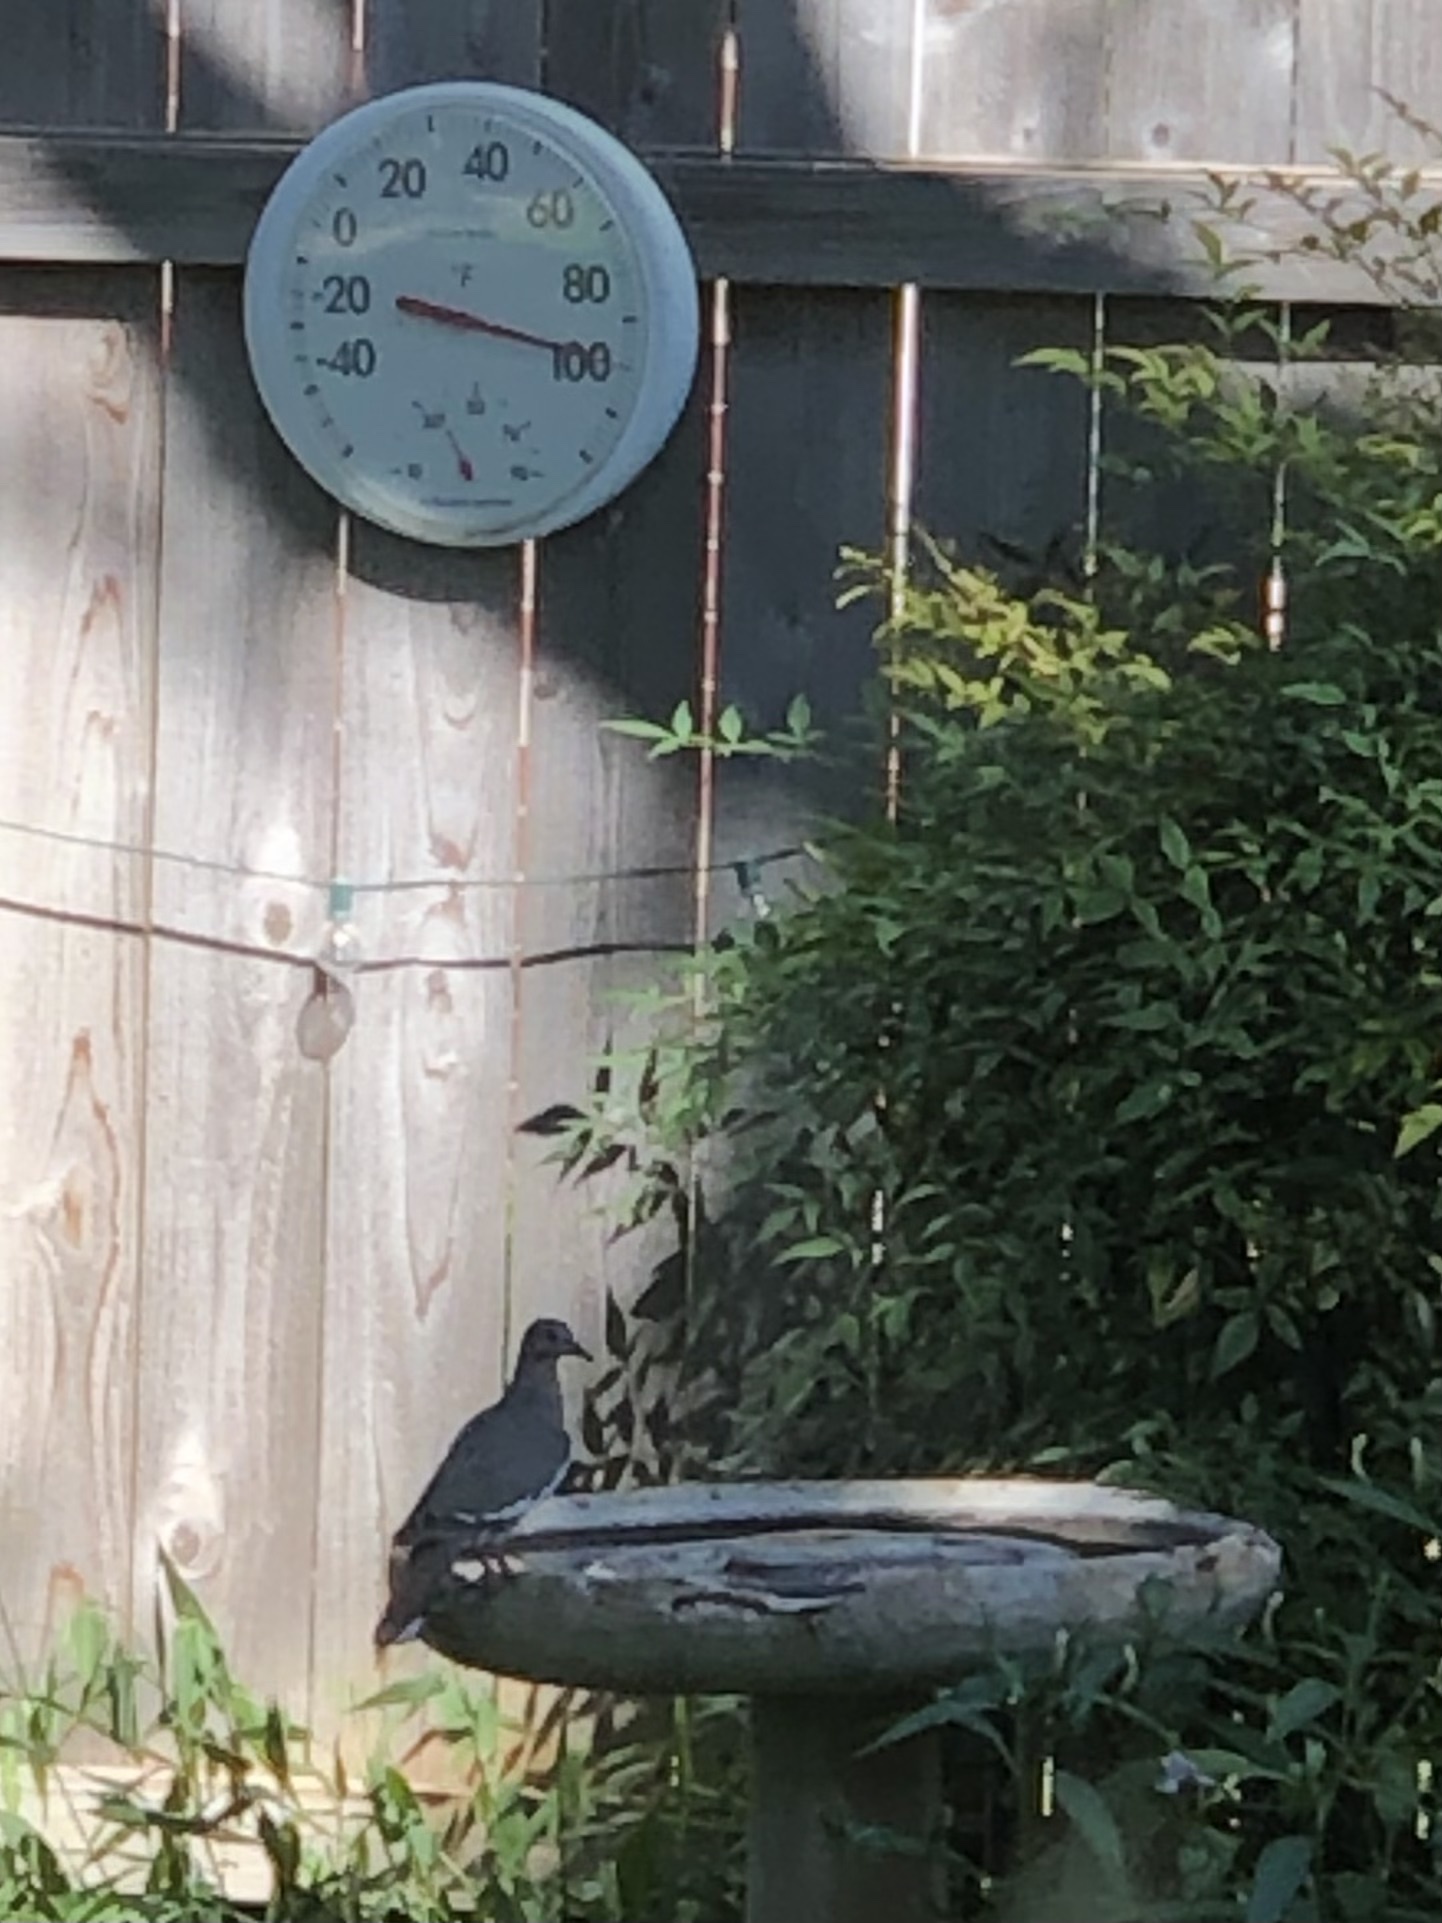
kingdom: Animalia
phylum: Chordata
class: Aves
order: Columbiformes
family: Columbidae
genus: Zenaida
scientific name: Zenaida asiatica
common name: White-winged dove
